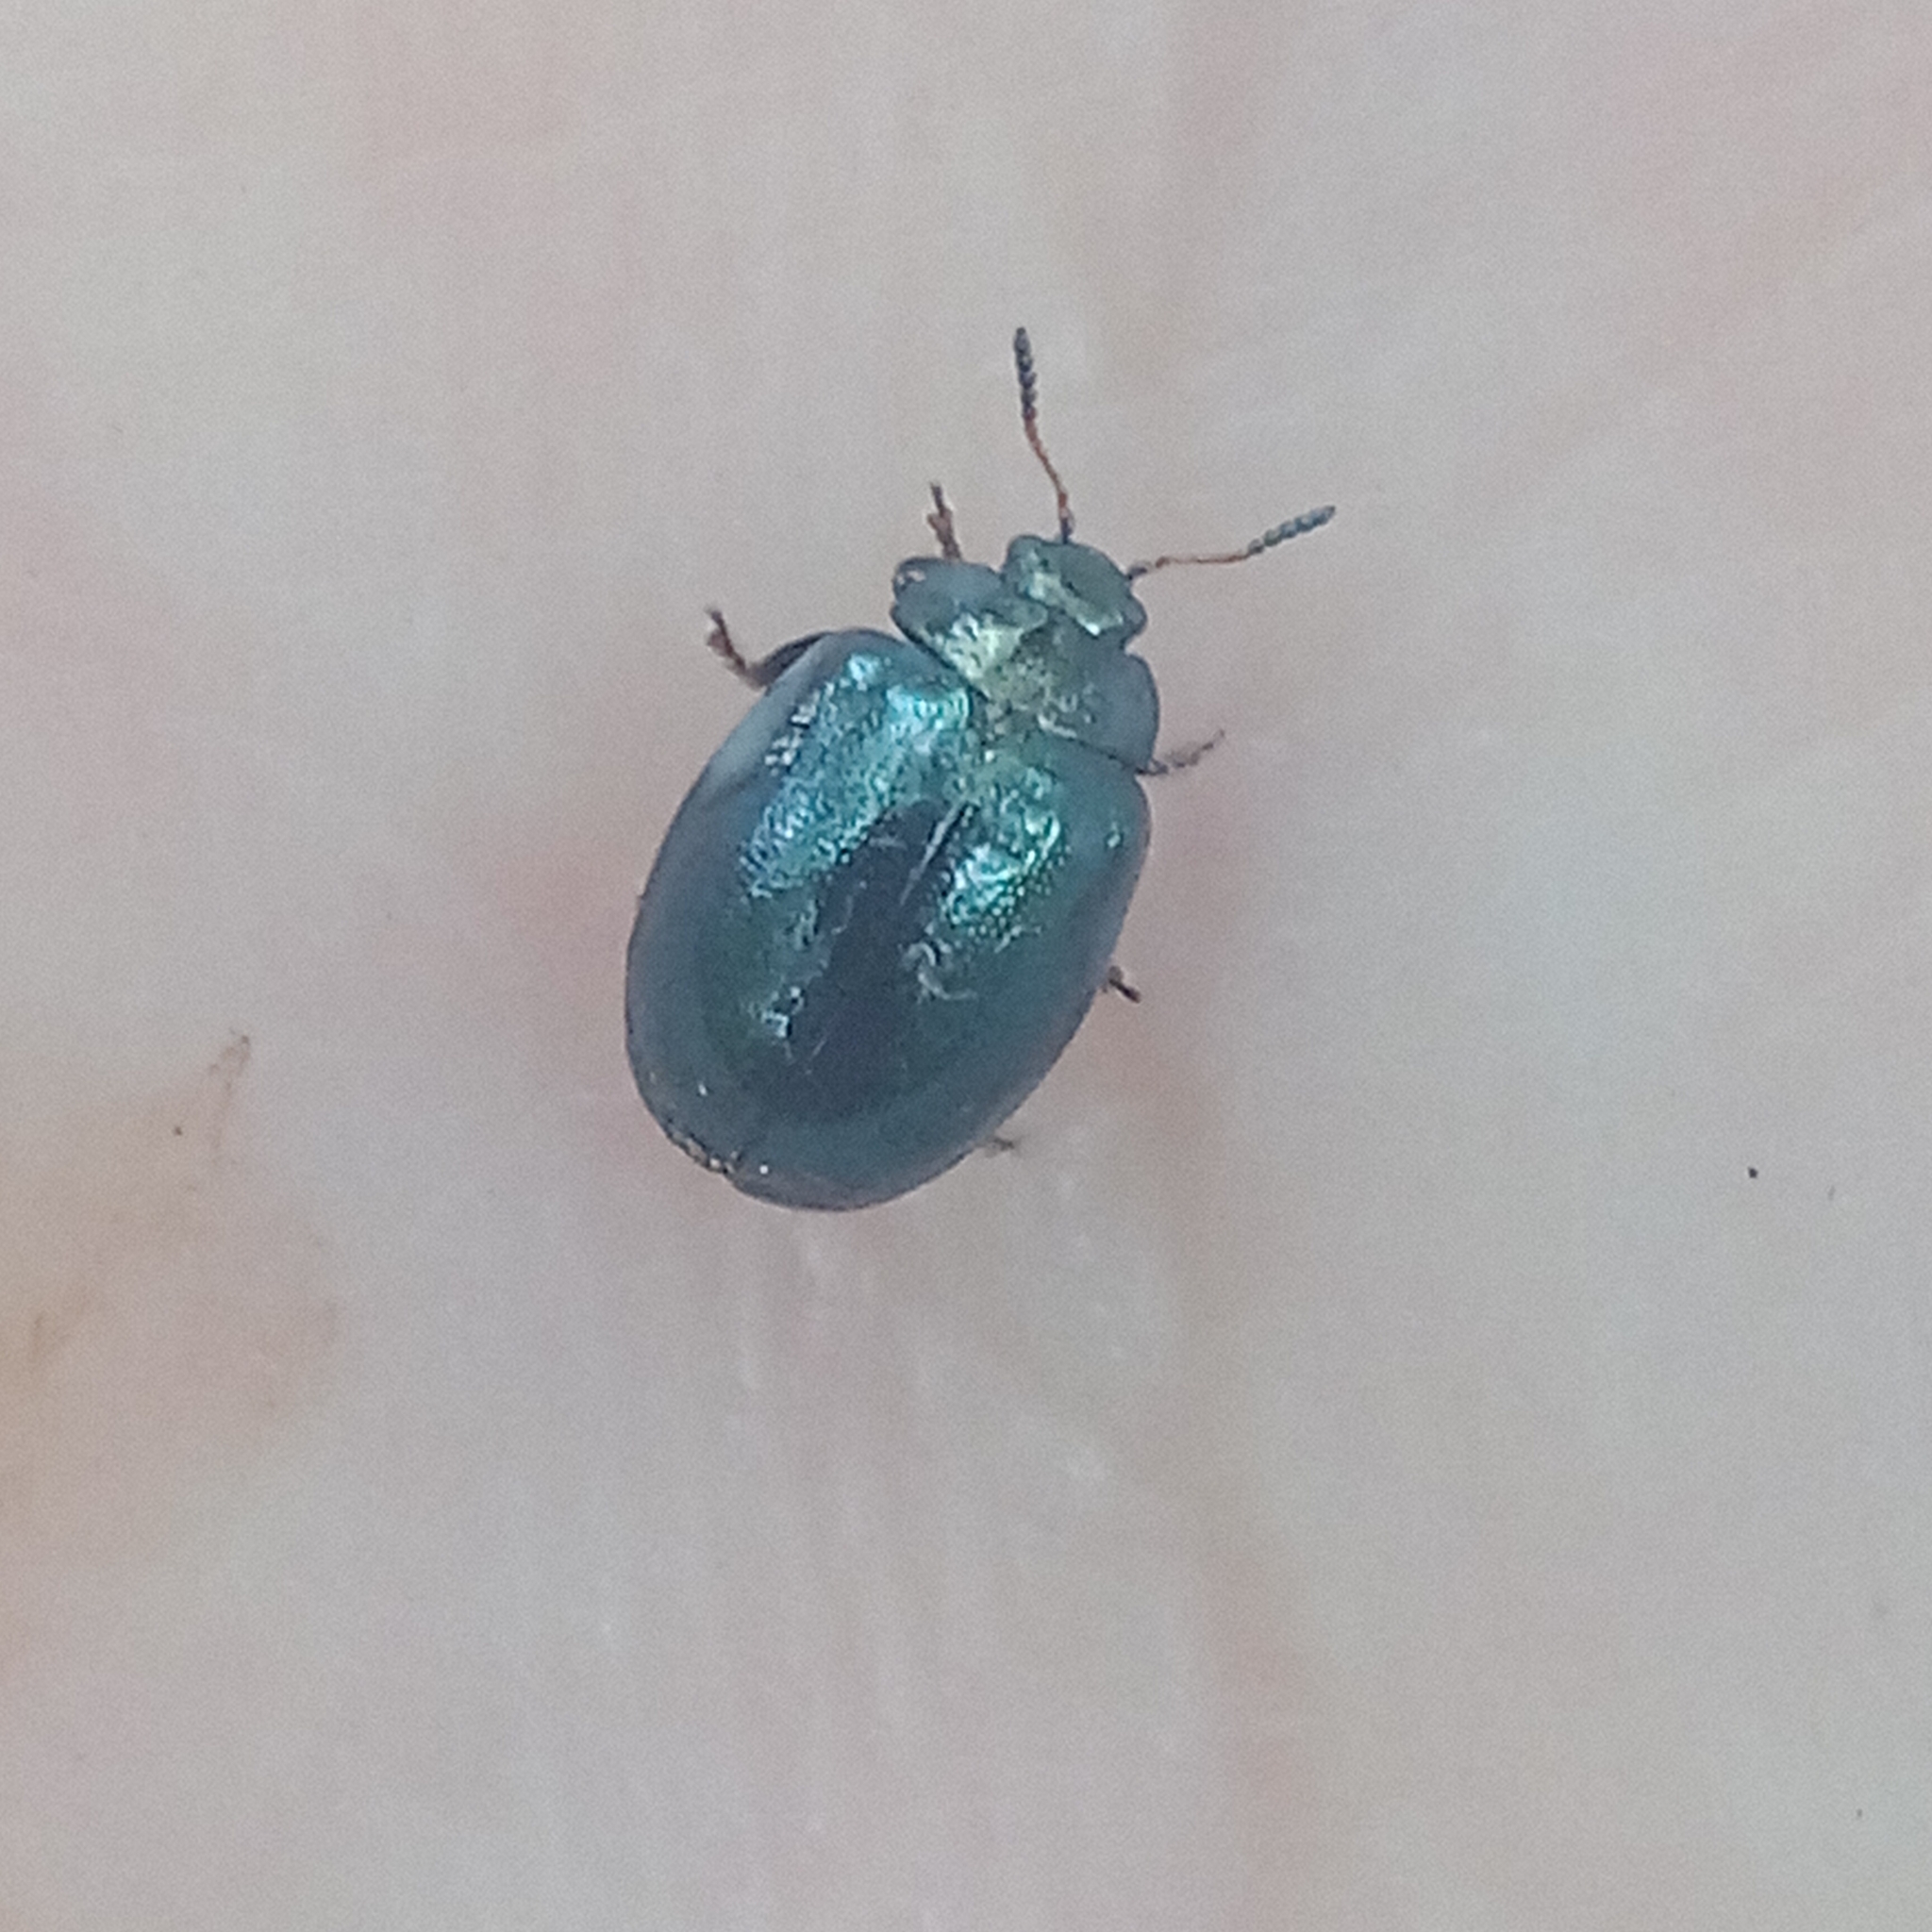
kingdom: Animalia
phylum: Arthropoda
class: Insecta
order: Coleoptera
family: Chrysomelidae
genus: Plagiodera
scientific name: Plagiodera versicolora
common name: Imported willow leaf beetle
